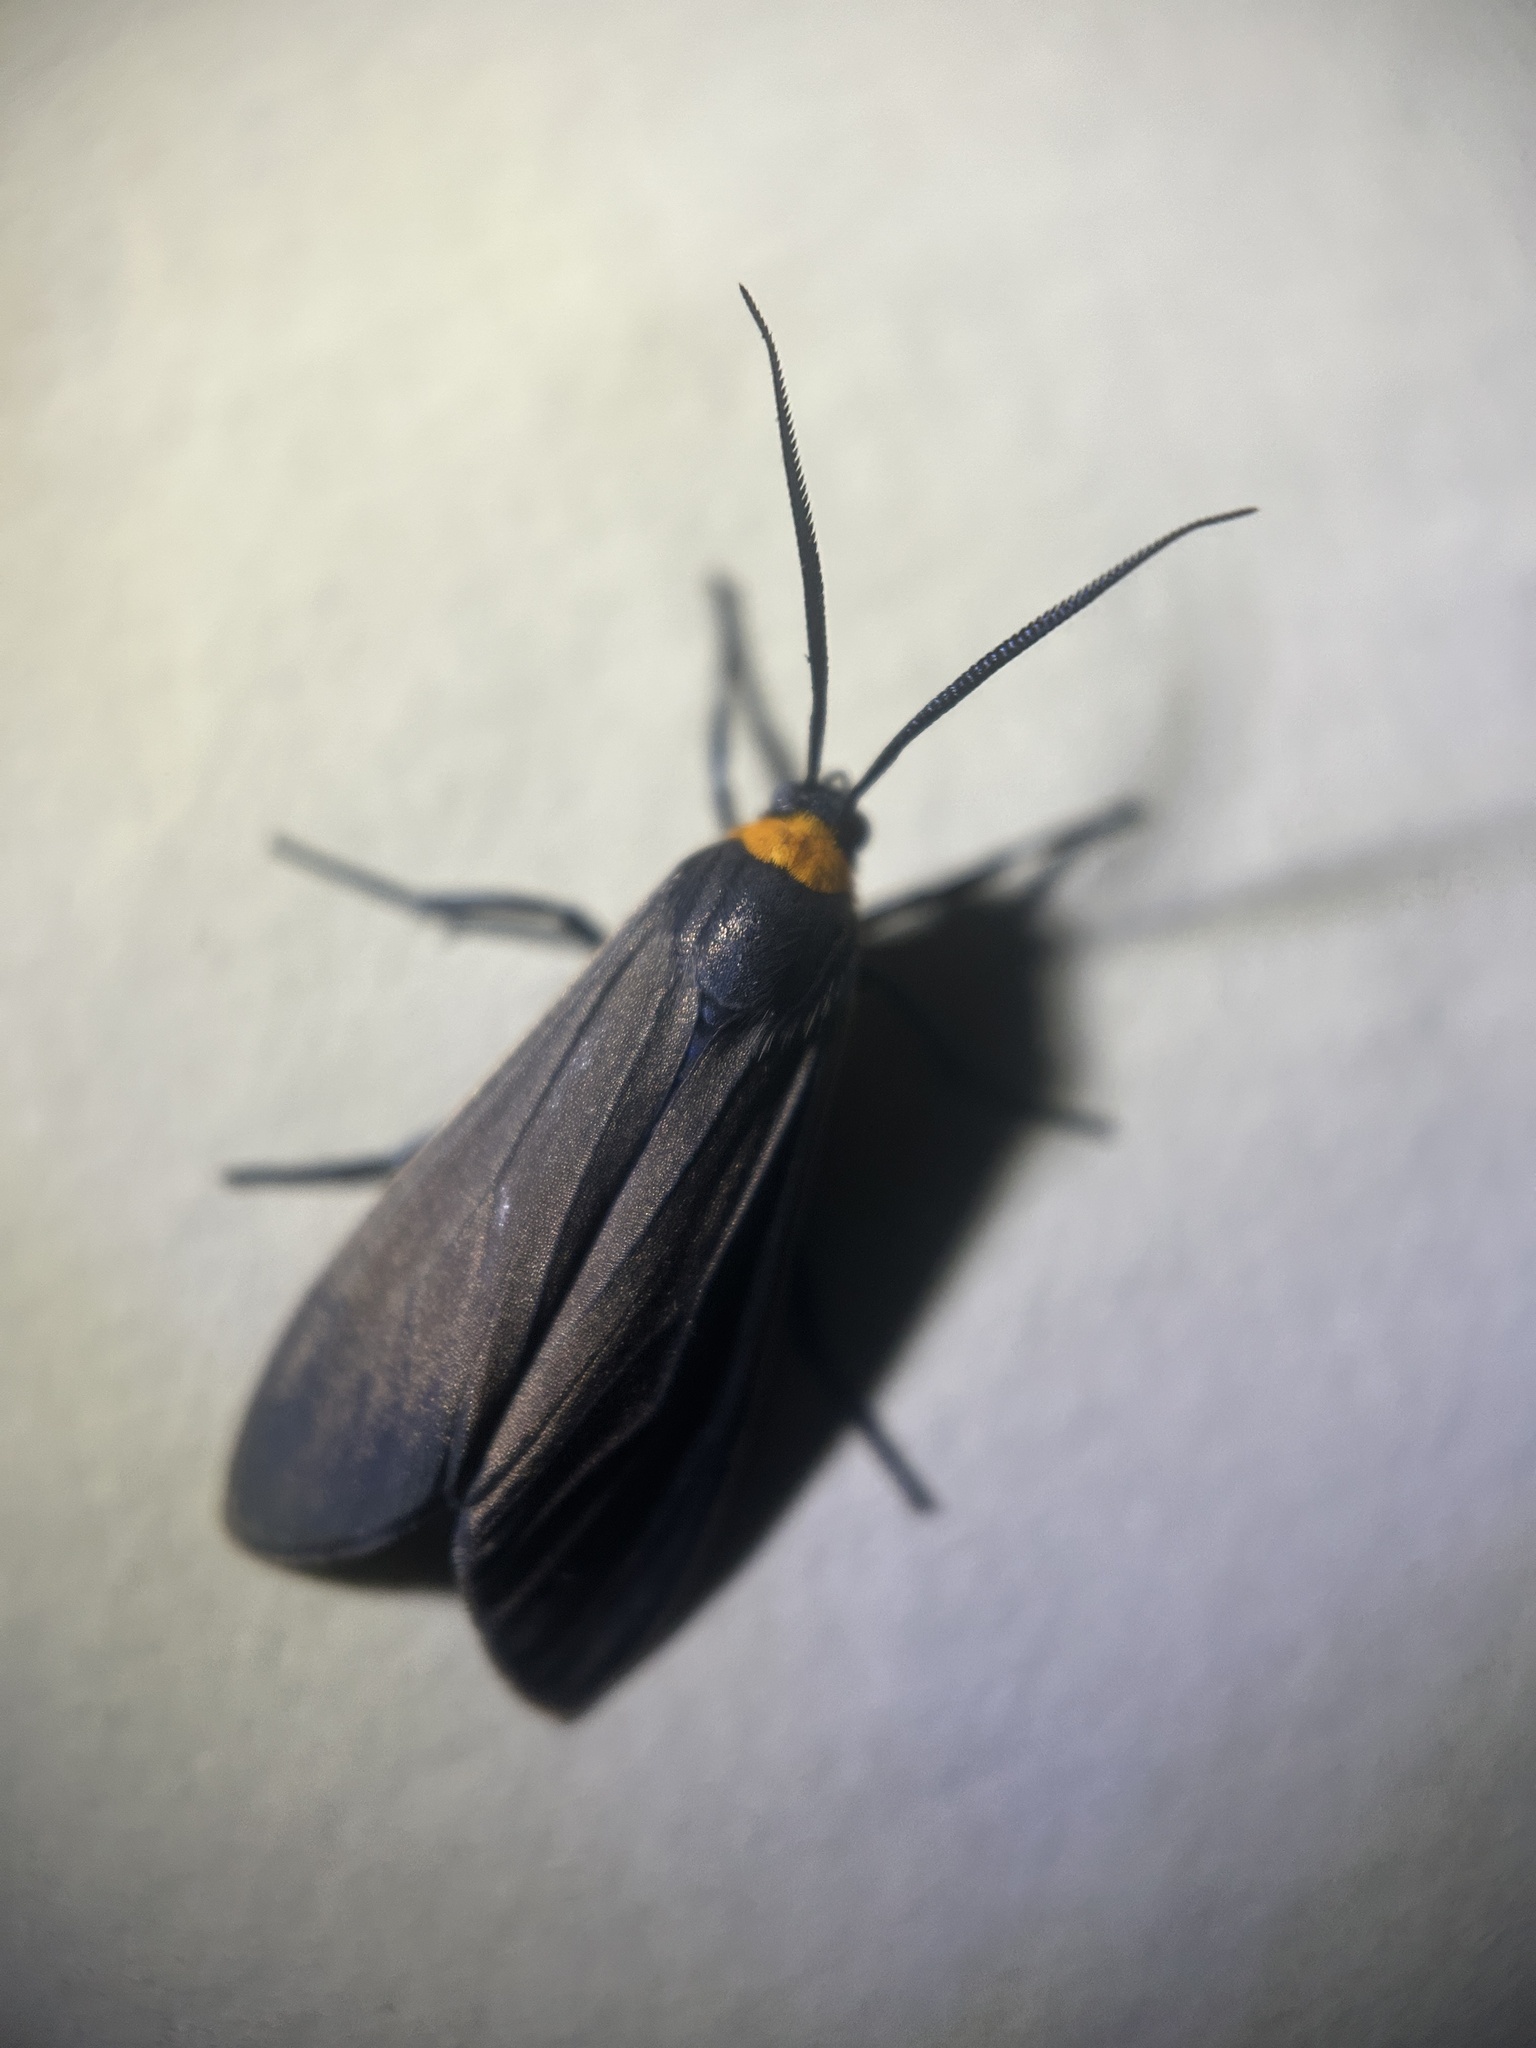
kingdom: Animalia
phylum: Arthropoda
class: Insecta
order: Lepidoptera
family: Erebidae
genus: Cisseps
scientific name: Cisseps fulvicollis
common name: Yellow-collared scape moth
